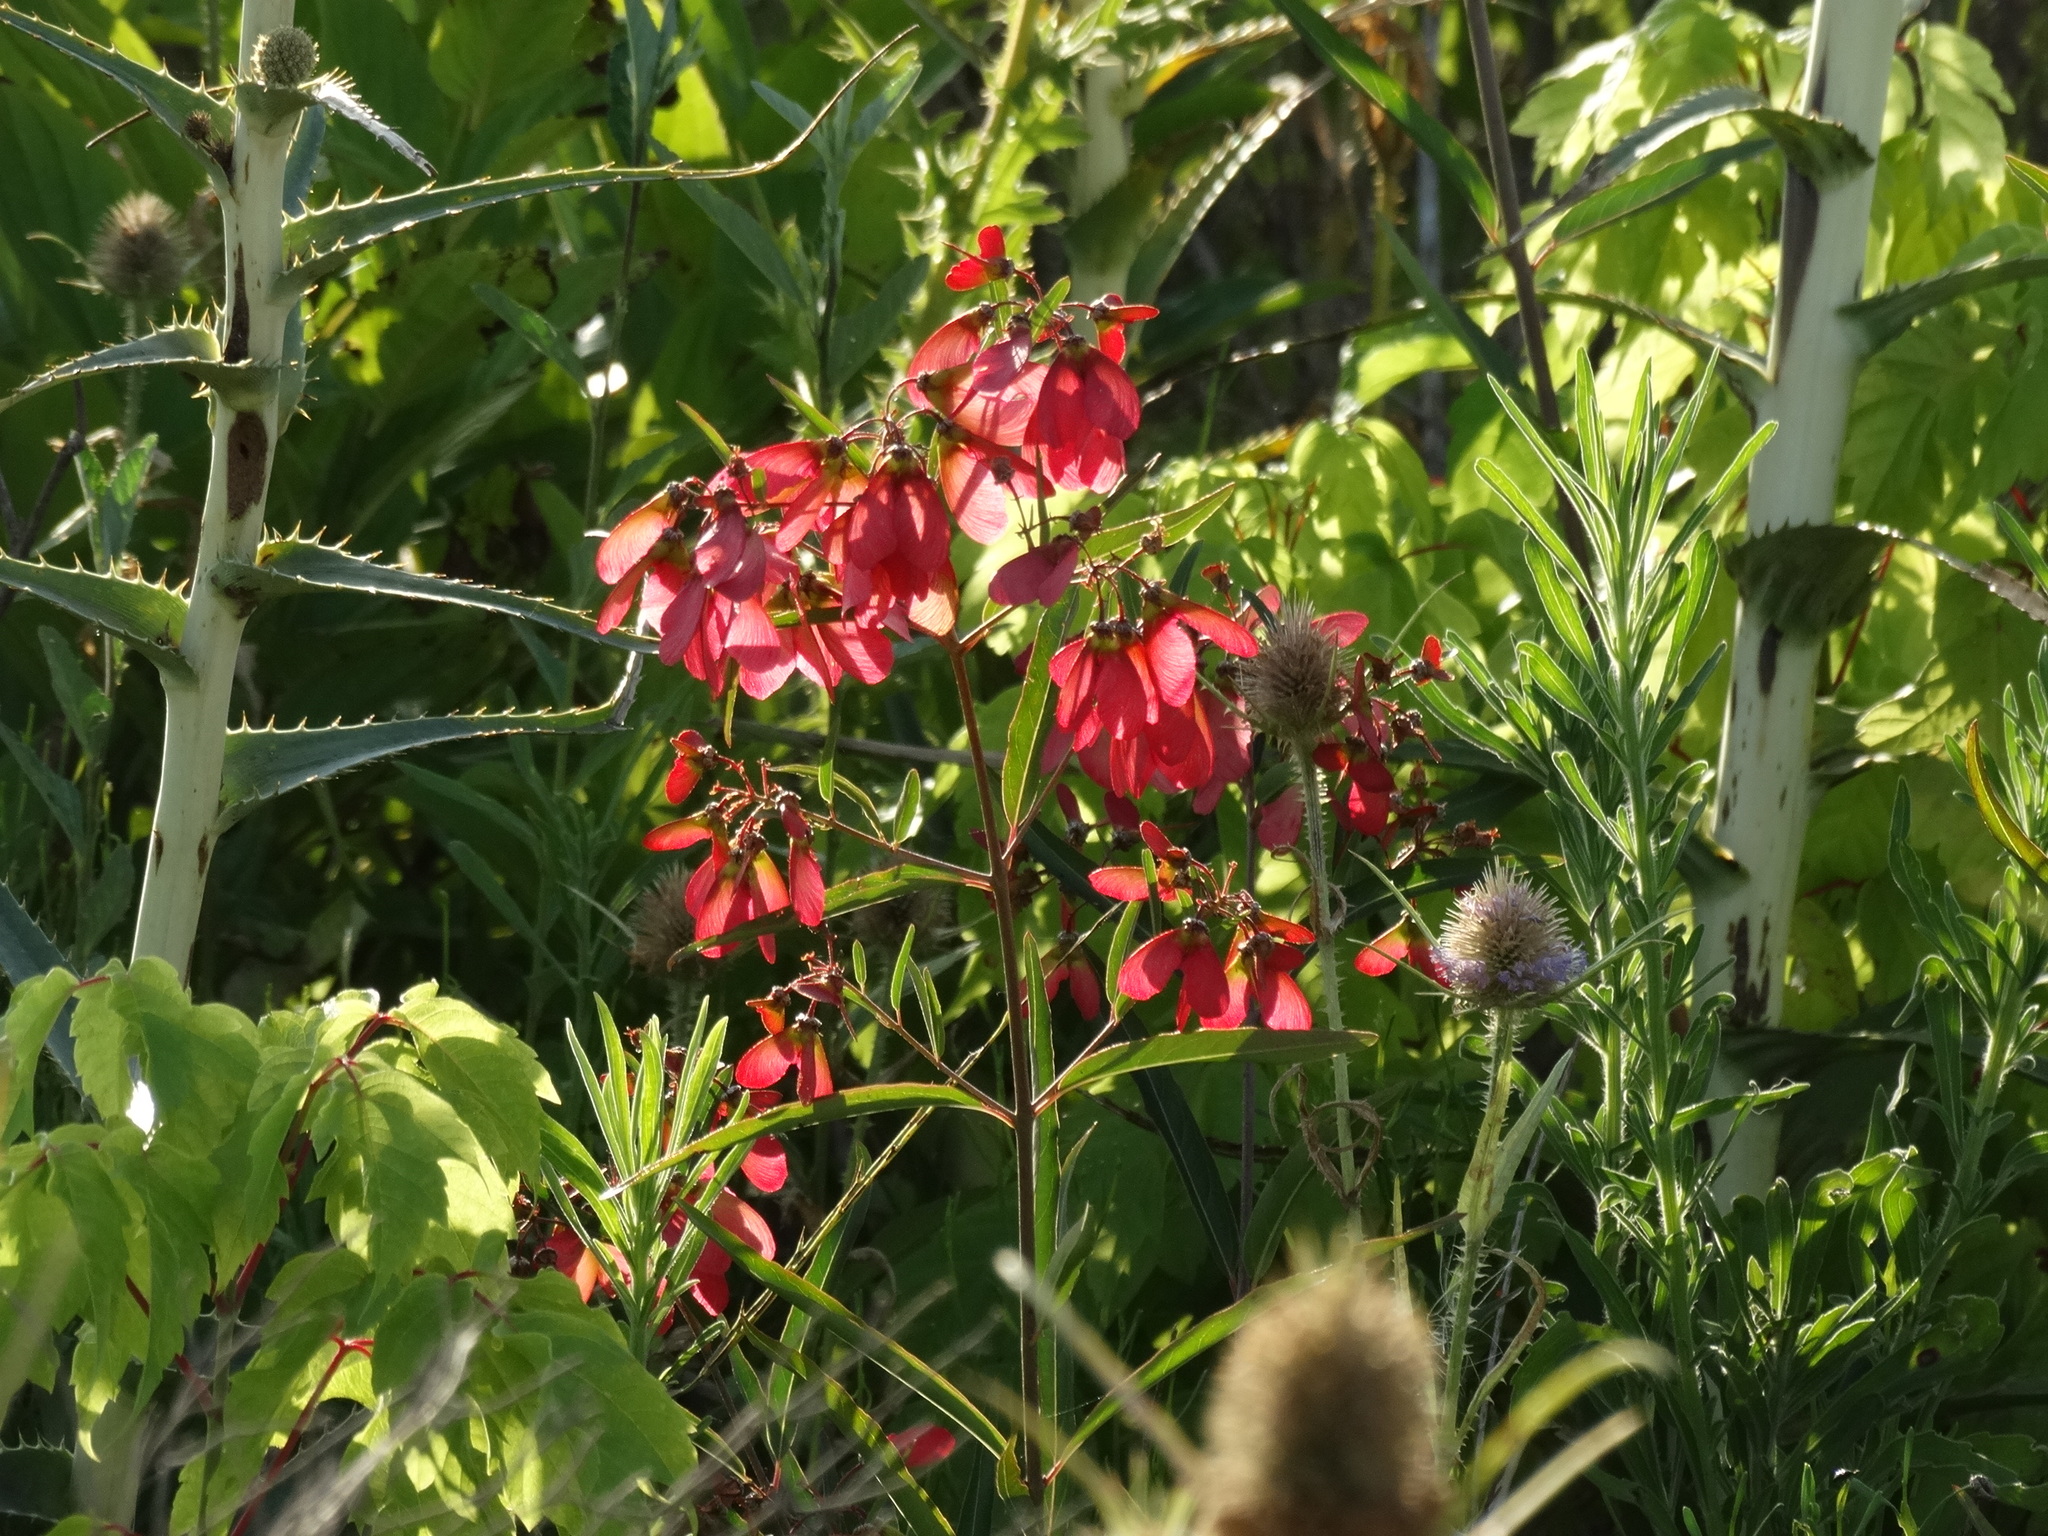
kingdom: Plantae
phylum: Tracheophyta
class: Magnoliopsida
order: Malpighiales
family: Malpighiaceae
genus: Heteropterys
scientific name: Heteropterys glabra
